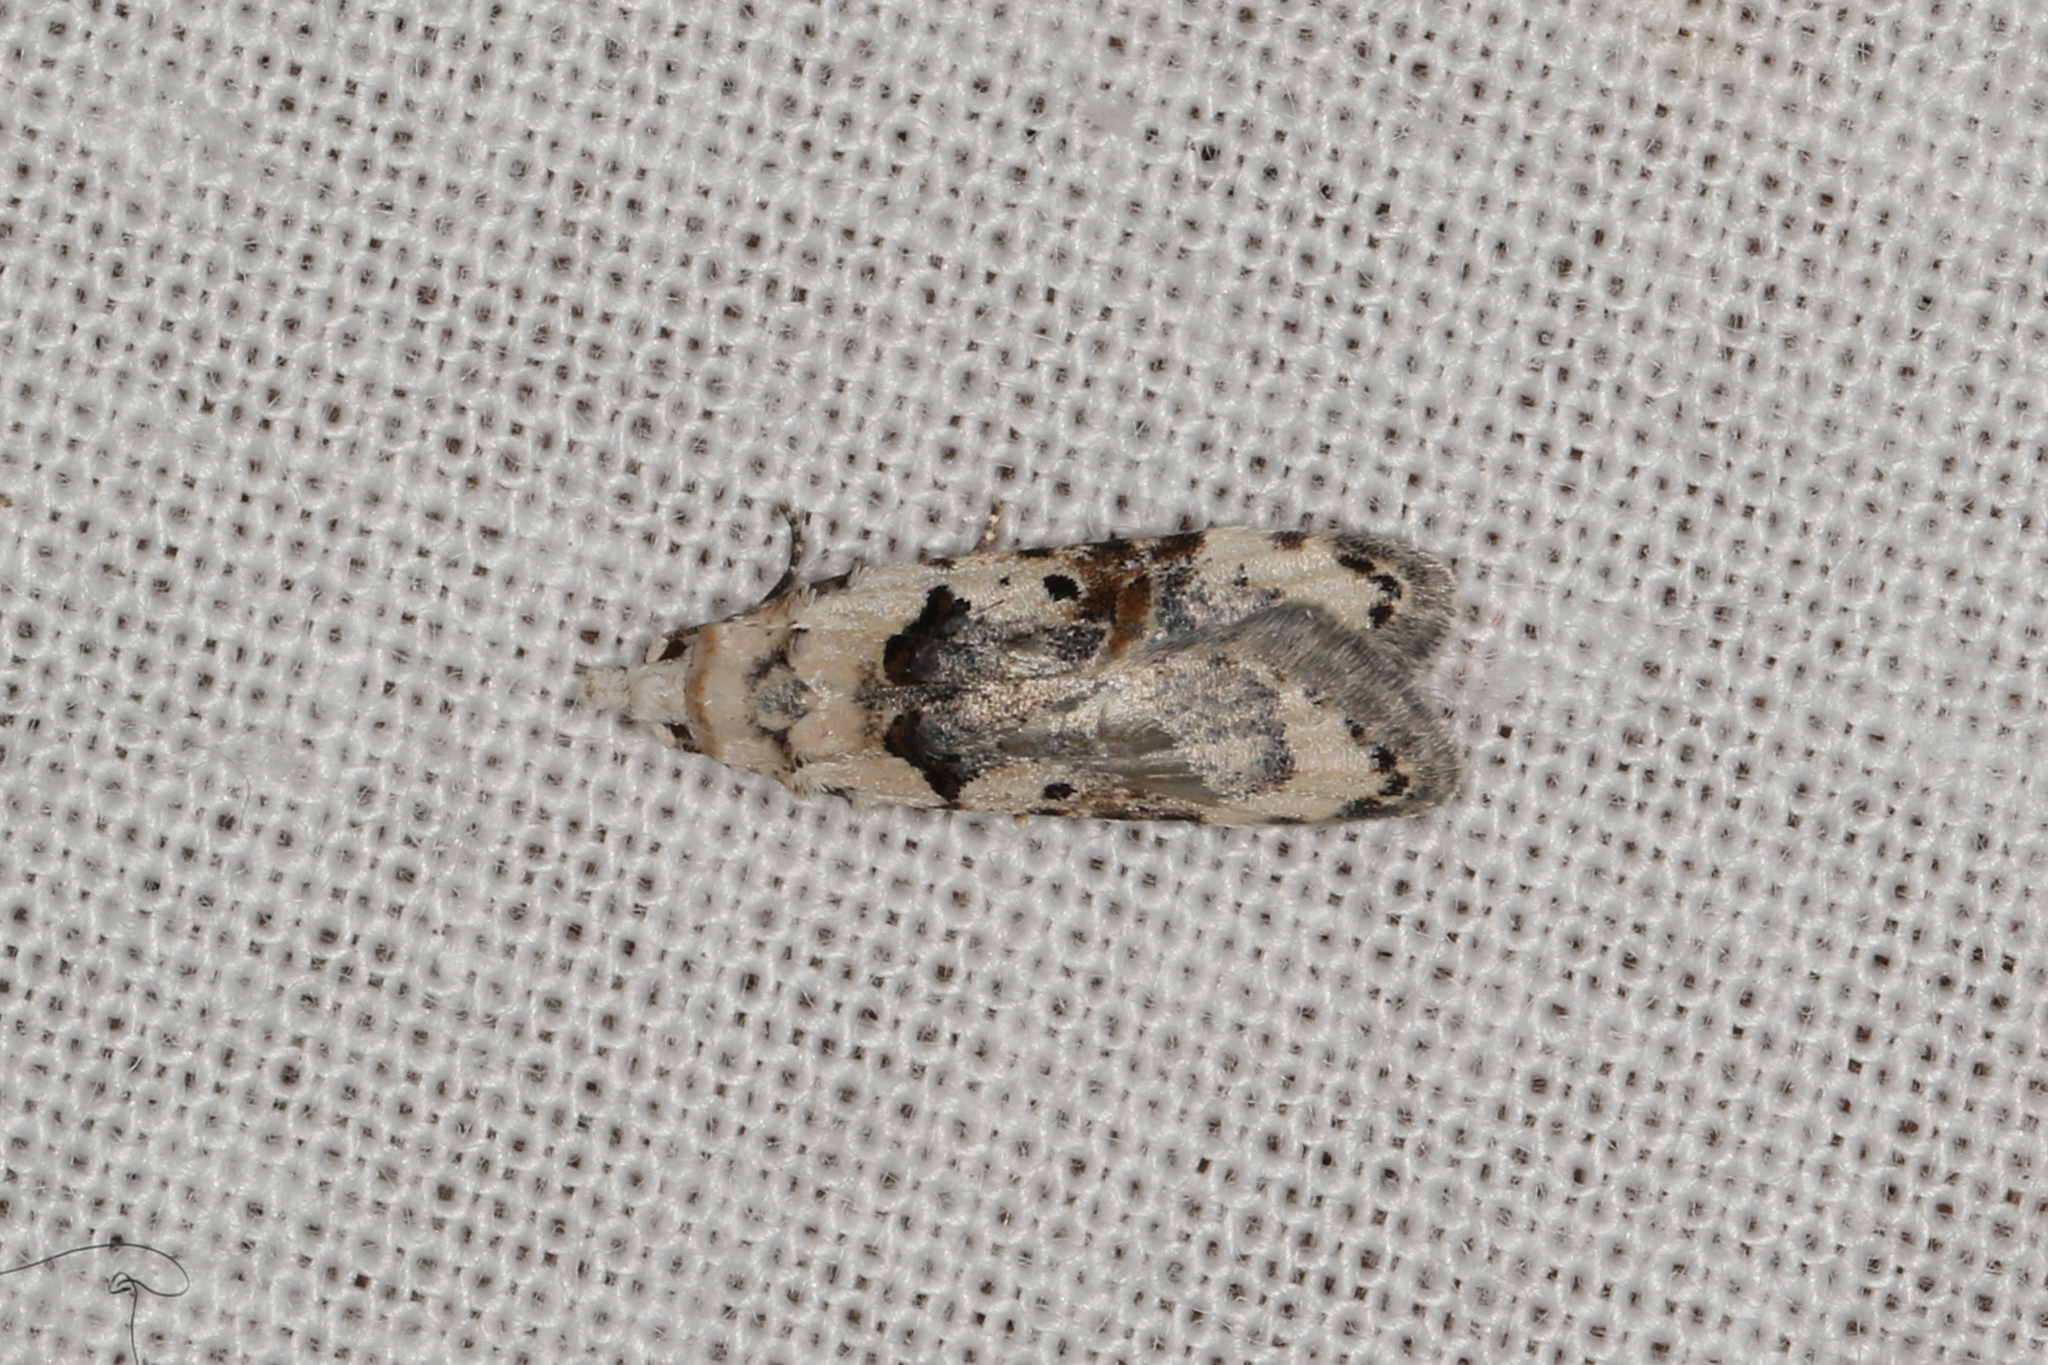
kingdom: Animalia
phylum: Arthropoda
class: Insecta
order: Lepidoptera
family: Carposinidae
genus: Sosineura
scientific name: Sosineura mimica
